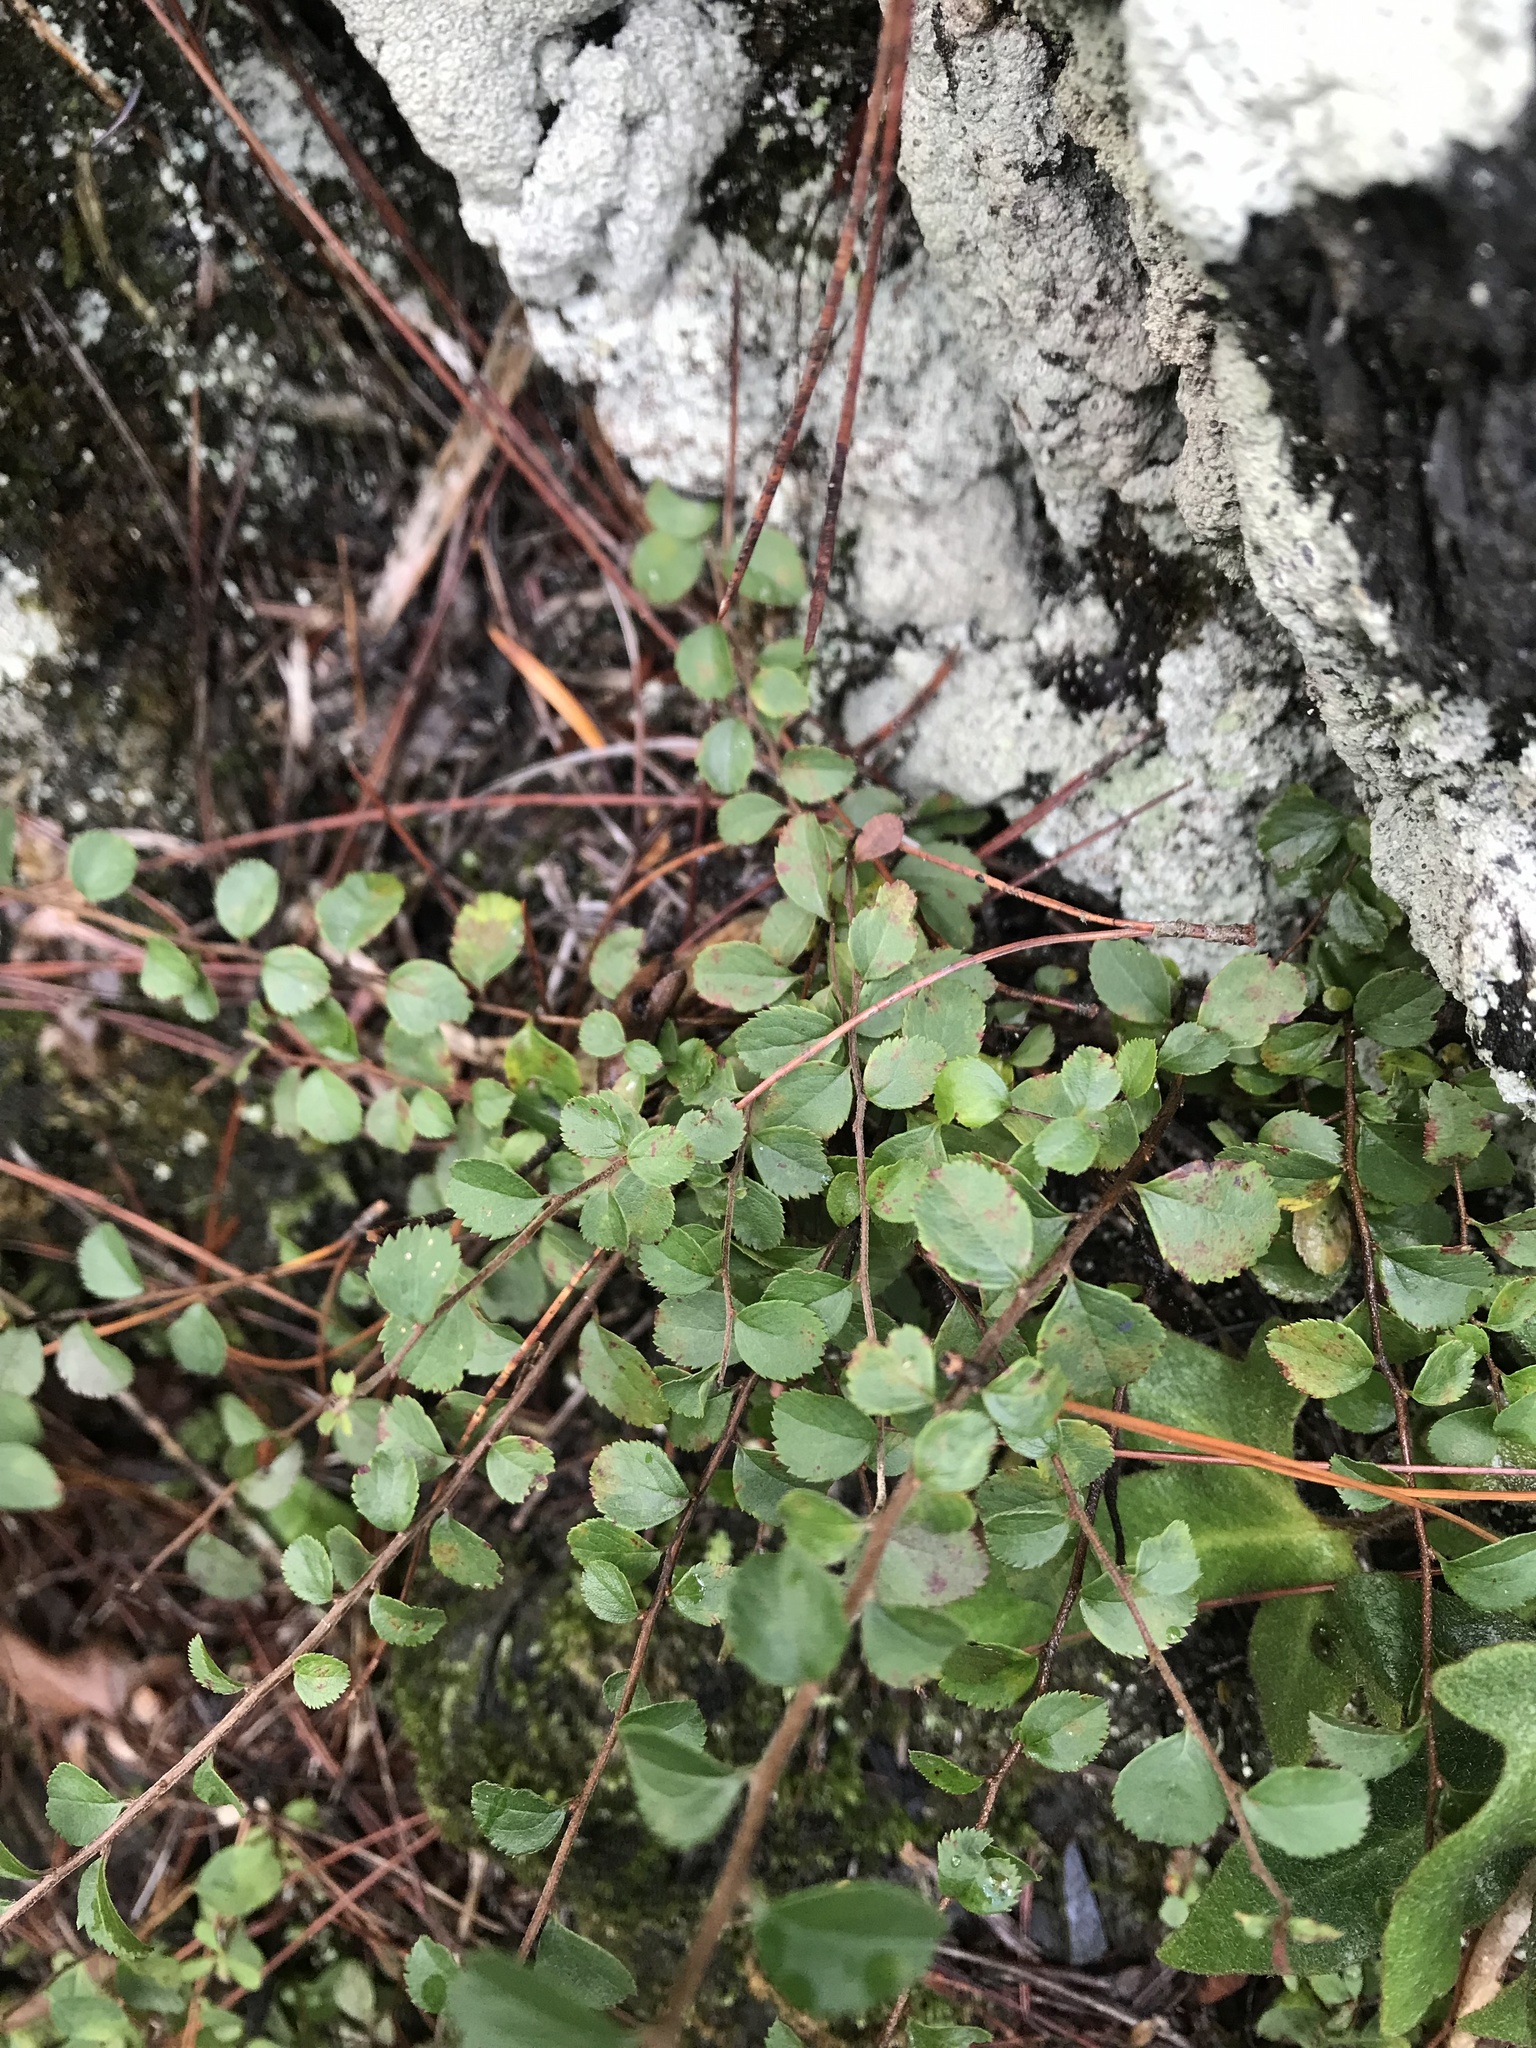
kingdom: Plantae
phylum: Tracheophyta
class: Magnoliopsida
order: Ericales
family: Primulaceae
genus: Myrsine
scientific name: Myrsine africana
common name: African-boxwood
